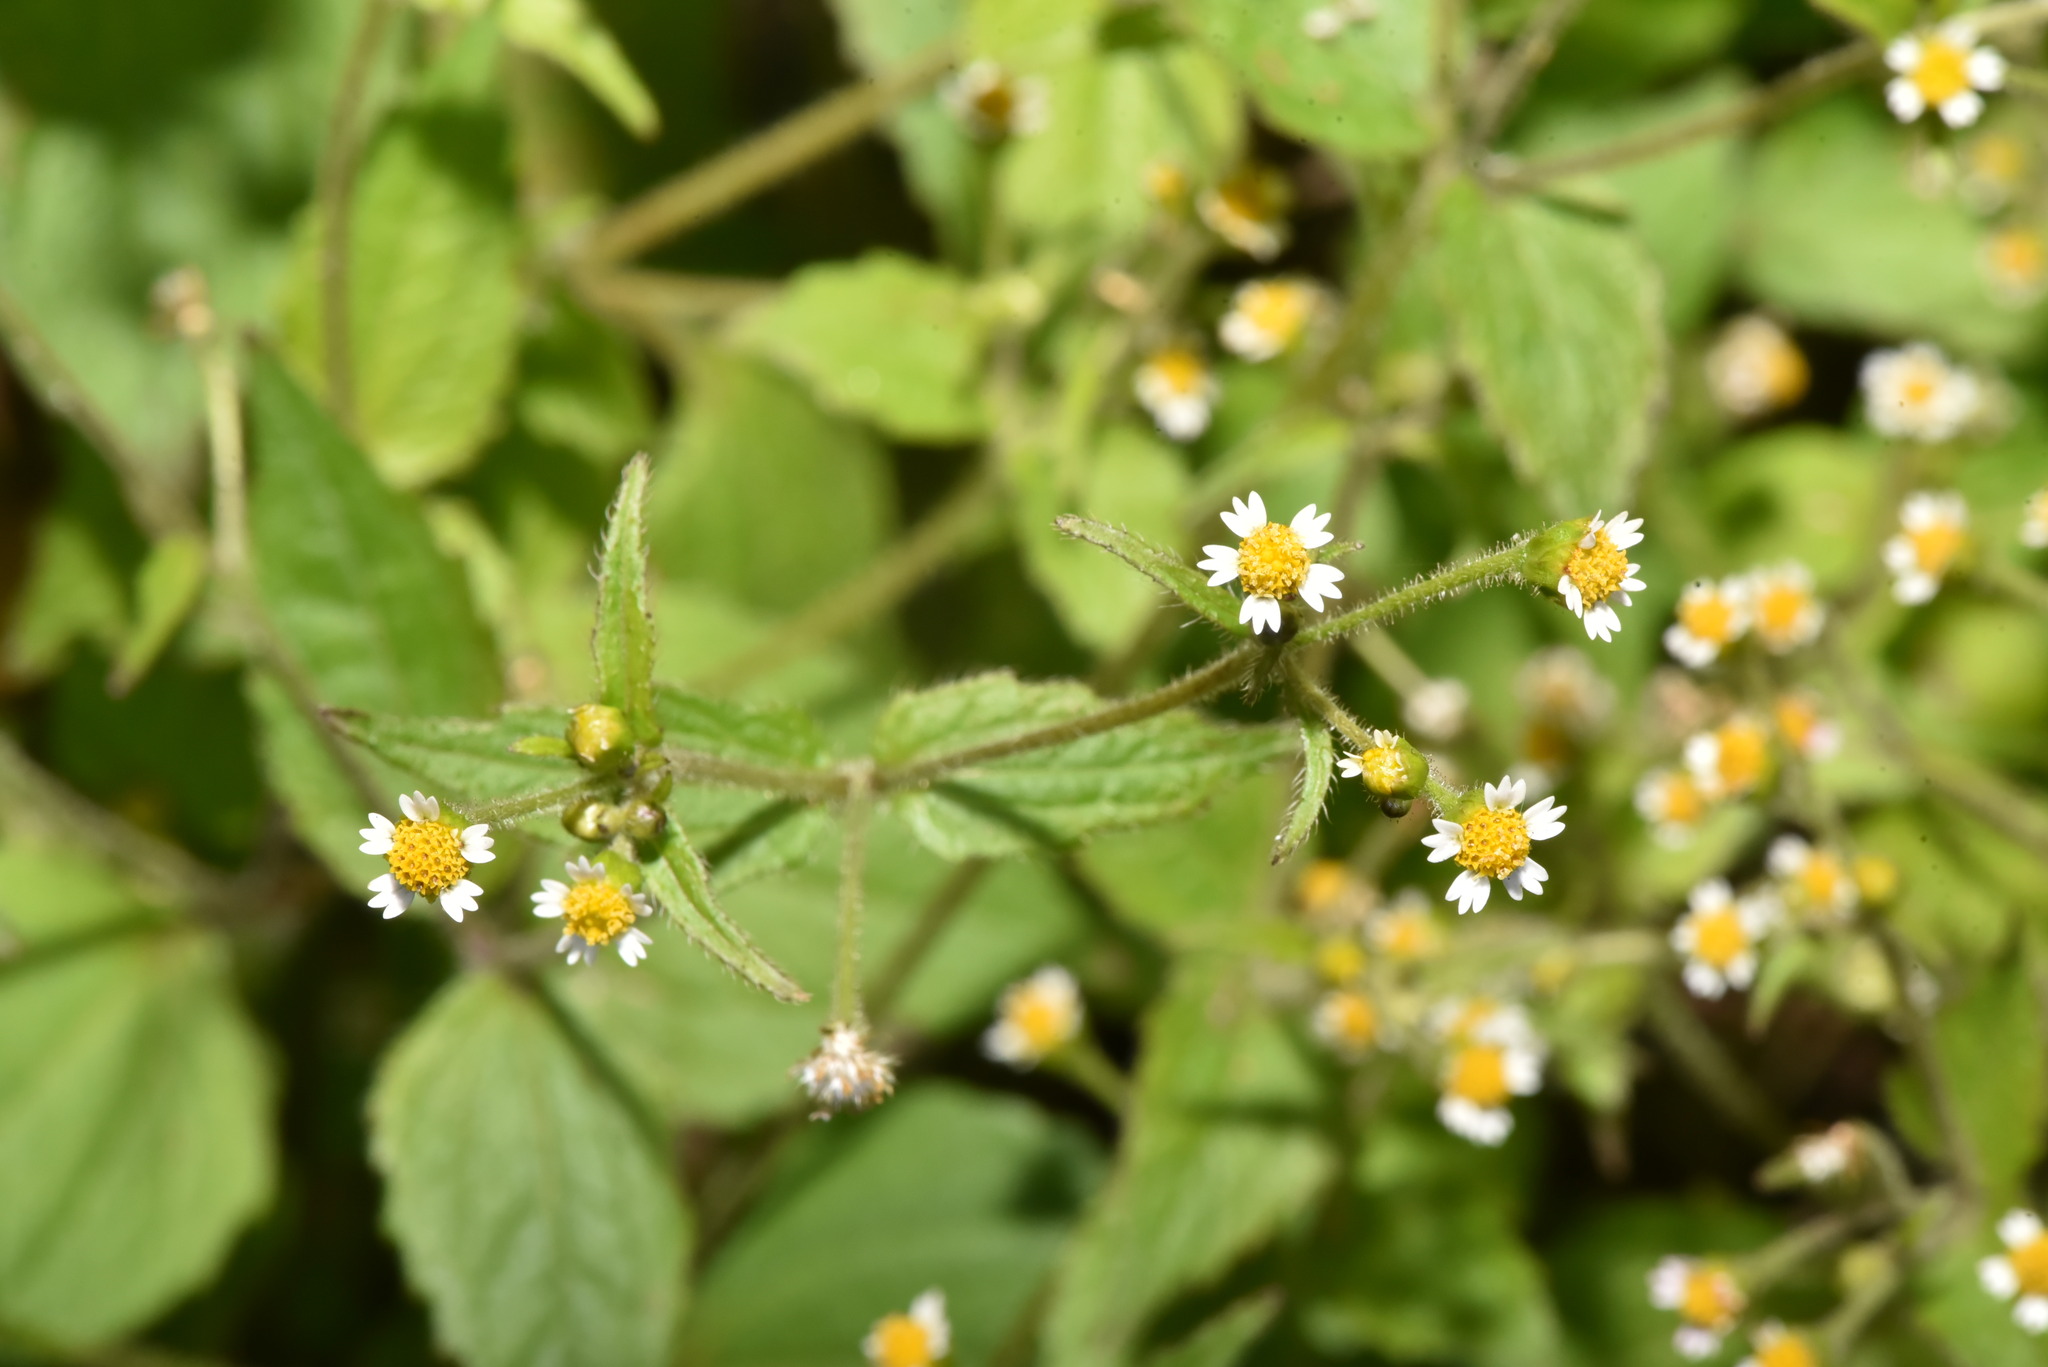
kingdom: Plantae
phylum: Tracheophyta
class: Magnoliopsida
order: Asterales
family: Asteraceae
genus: Galinsoga
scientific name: Galinsoga quadriradiata
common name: Shaggy soldier
